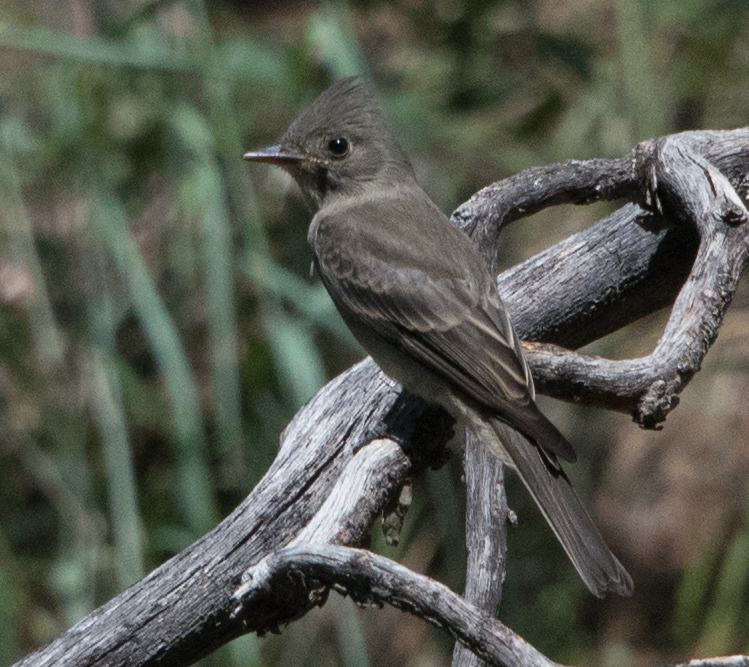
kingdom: Animalia
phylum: Chordata
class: Aves
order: Passeriformes
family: Tyrannidae
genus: Contopus
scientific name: Contopus pertinax
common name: Greater pewee
